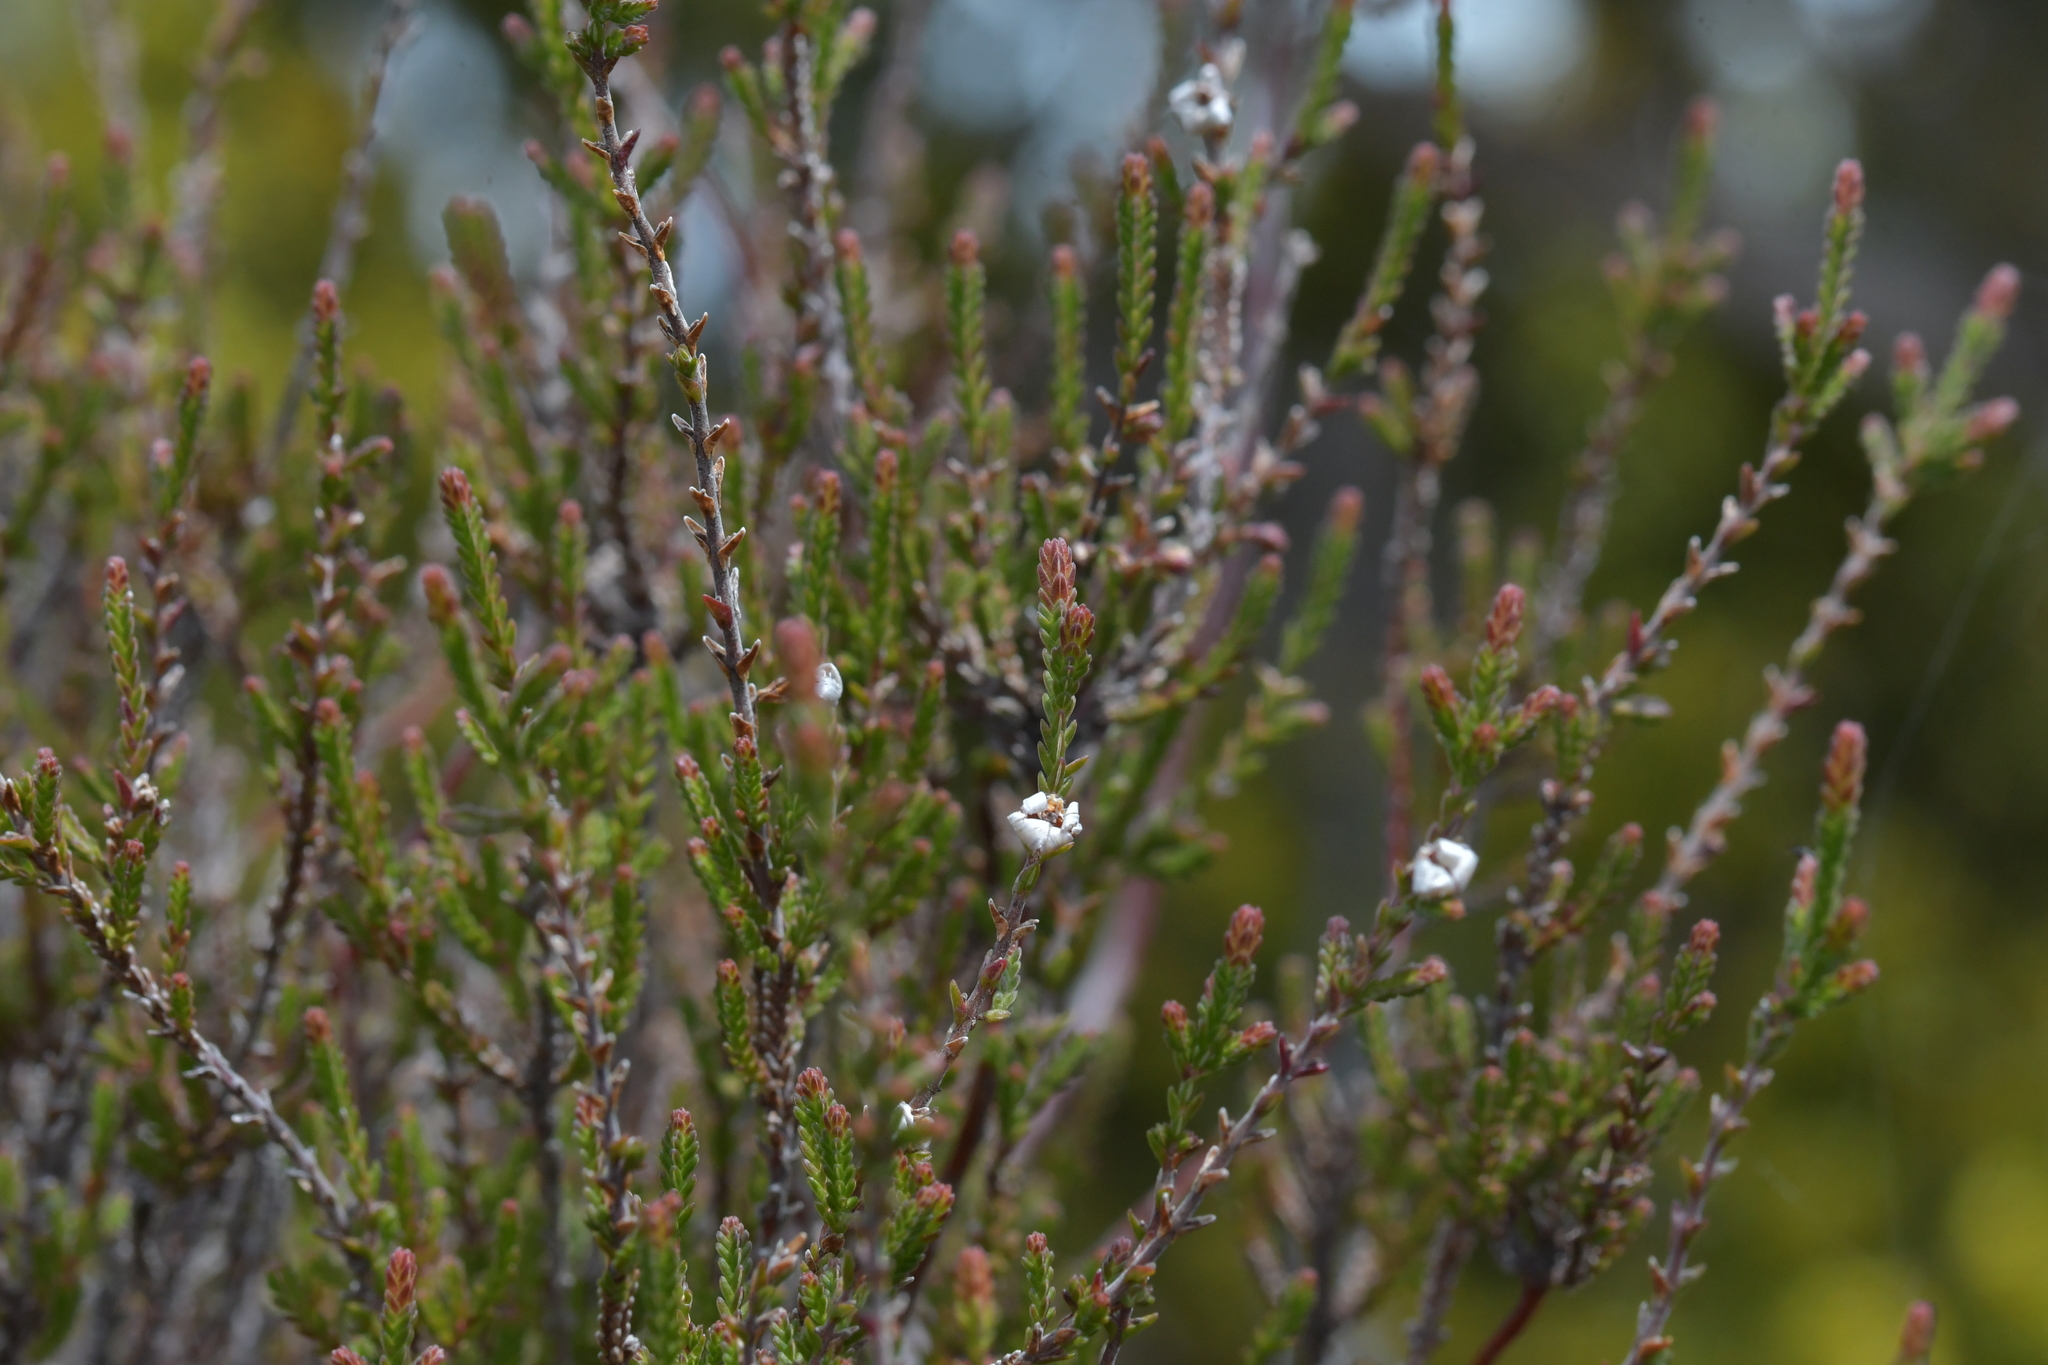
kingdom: Plantae
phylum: Tracheophyta
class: Magnoliopsida
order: Ericales
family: Ericaceae
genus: Calluna
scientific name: Calluna vulgaris
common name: Heather
